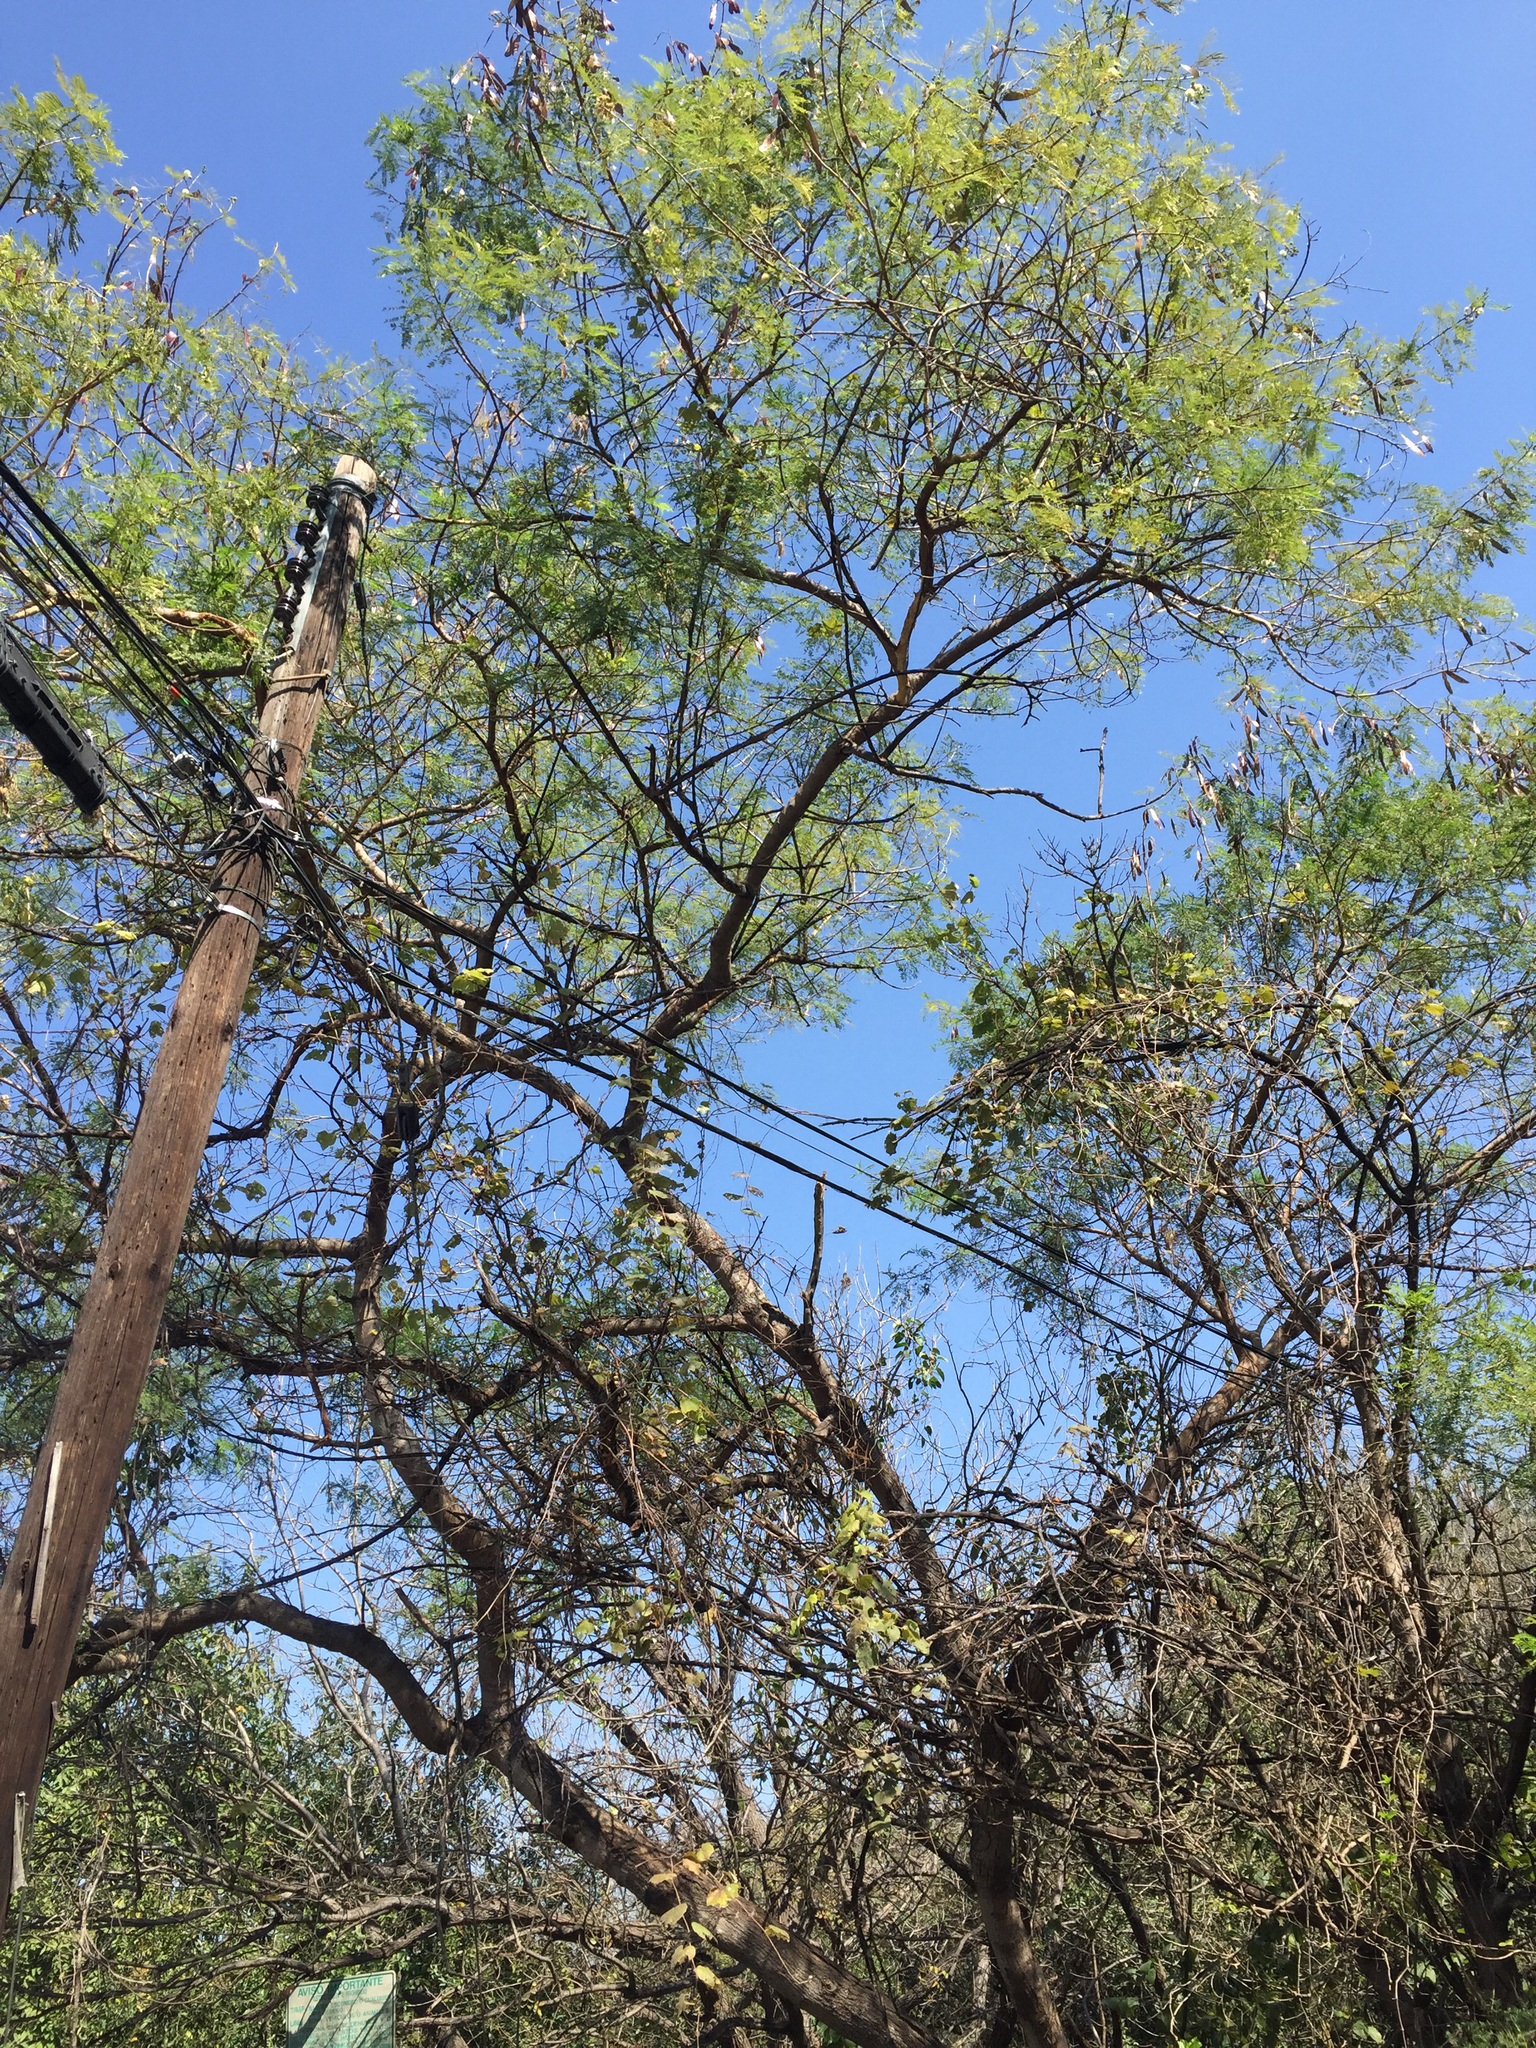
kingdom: Plantae
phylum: Tracheophyta
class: Magnoliopsida
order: Fabales
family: Fabaceae
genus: Leucaena
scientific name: Leucaena leucocephala
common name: White leadtree
